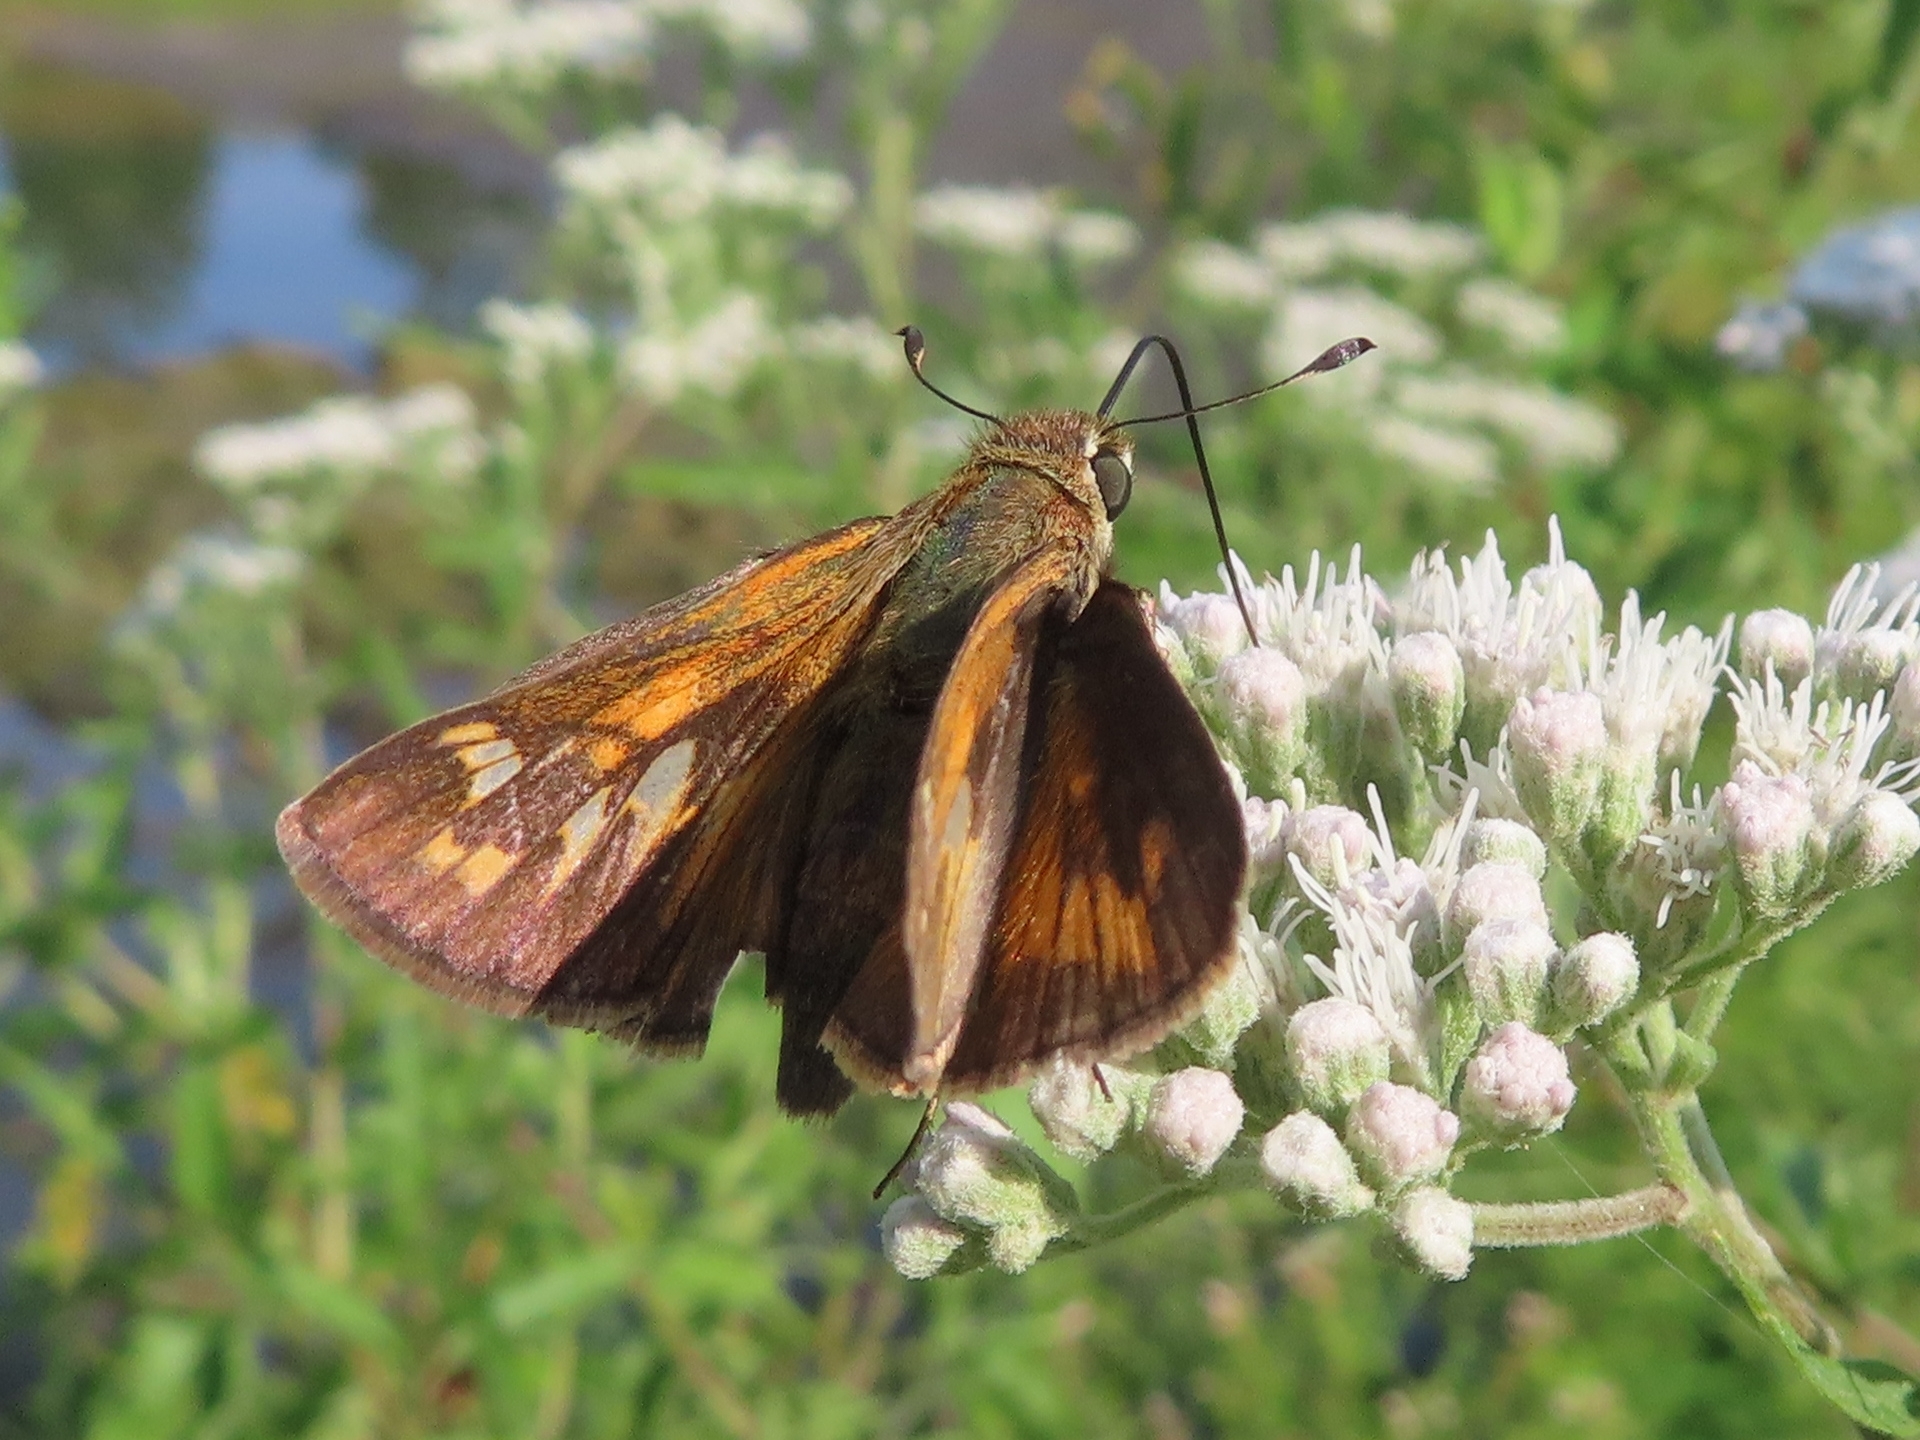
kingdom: Animalia
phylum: Arthropoda
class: Insecta
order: Lepidoptera
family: Hesperiidae
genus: Atalopedes
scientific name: Atalopedes
